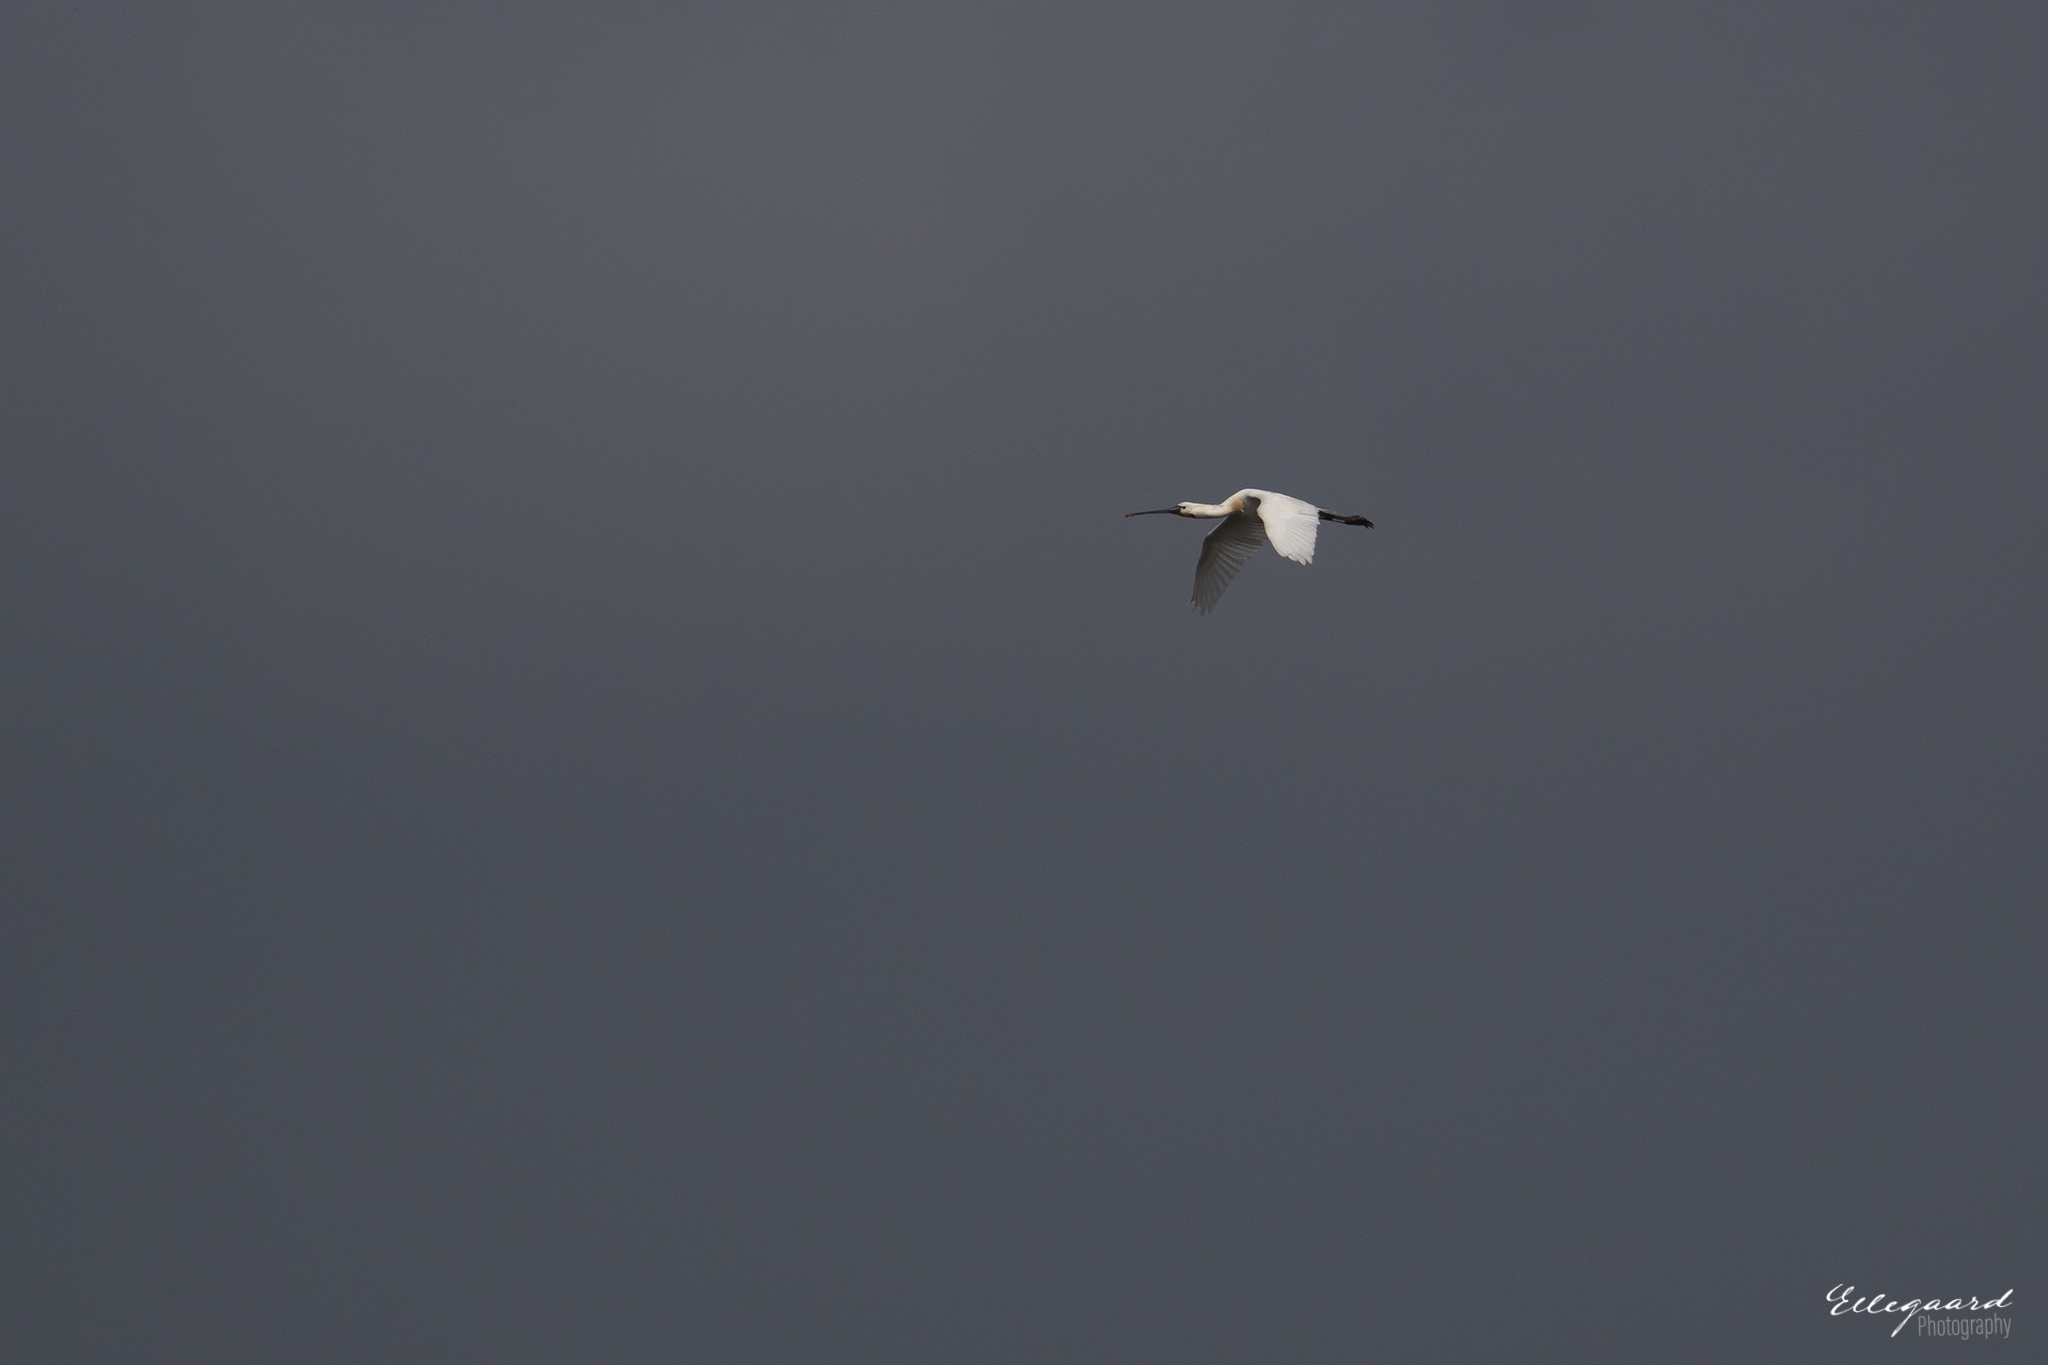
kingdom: Animalia
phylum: Chordata
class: Aves
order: Pelecaniformes
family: Threskiornithidae
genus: Platalea
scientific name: Platalea leucorodia
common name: Eurasian spoonbill
